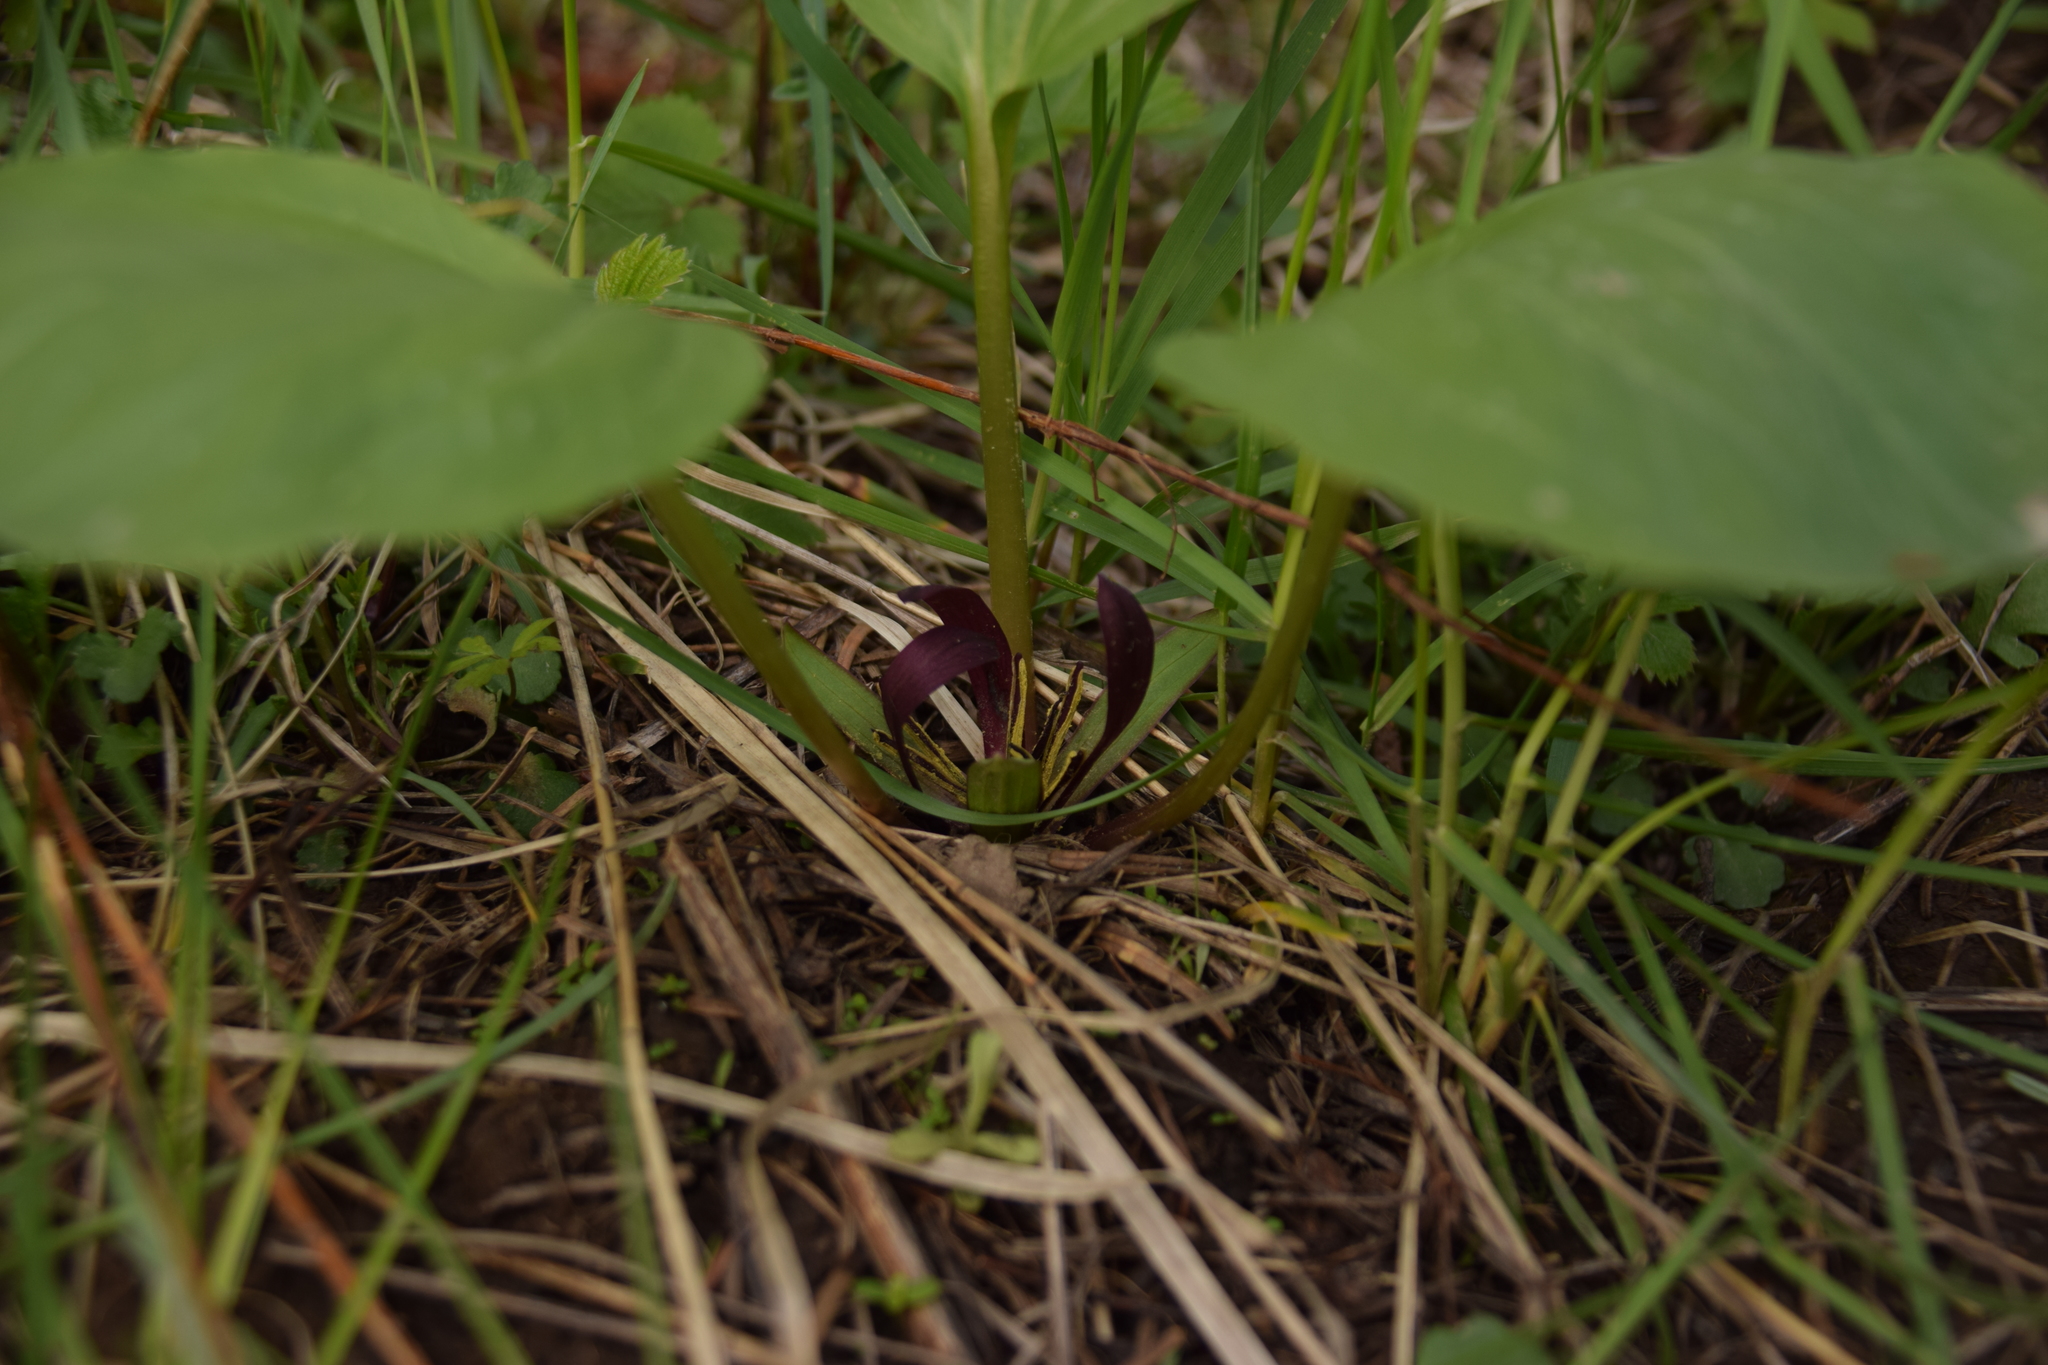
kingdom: Plantae
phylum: Tracheophyta
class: Liliopsida
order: Liliales
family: Melanthiaceae
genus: Trillium
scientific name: Trillium petiolatum
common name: Idaho trillium
